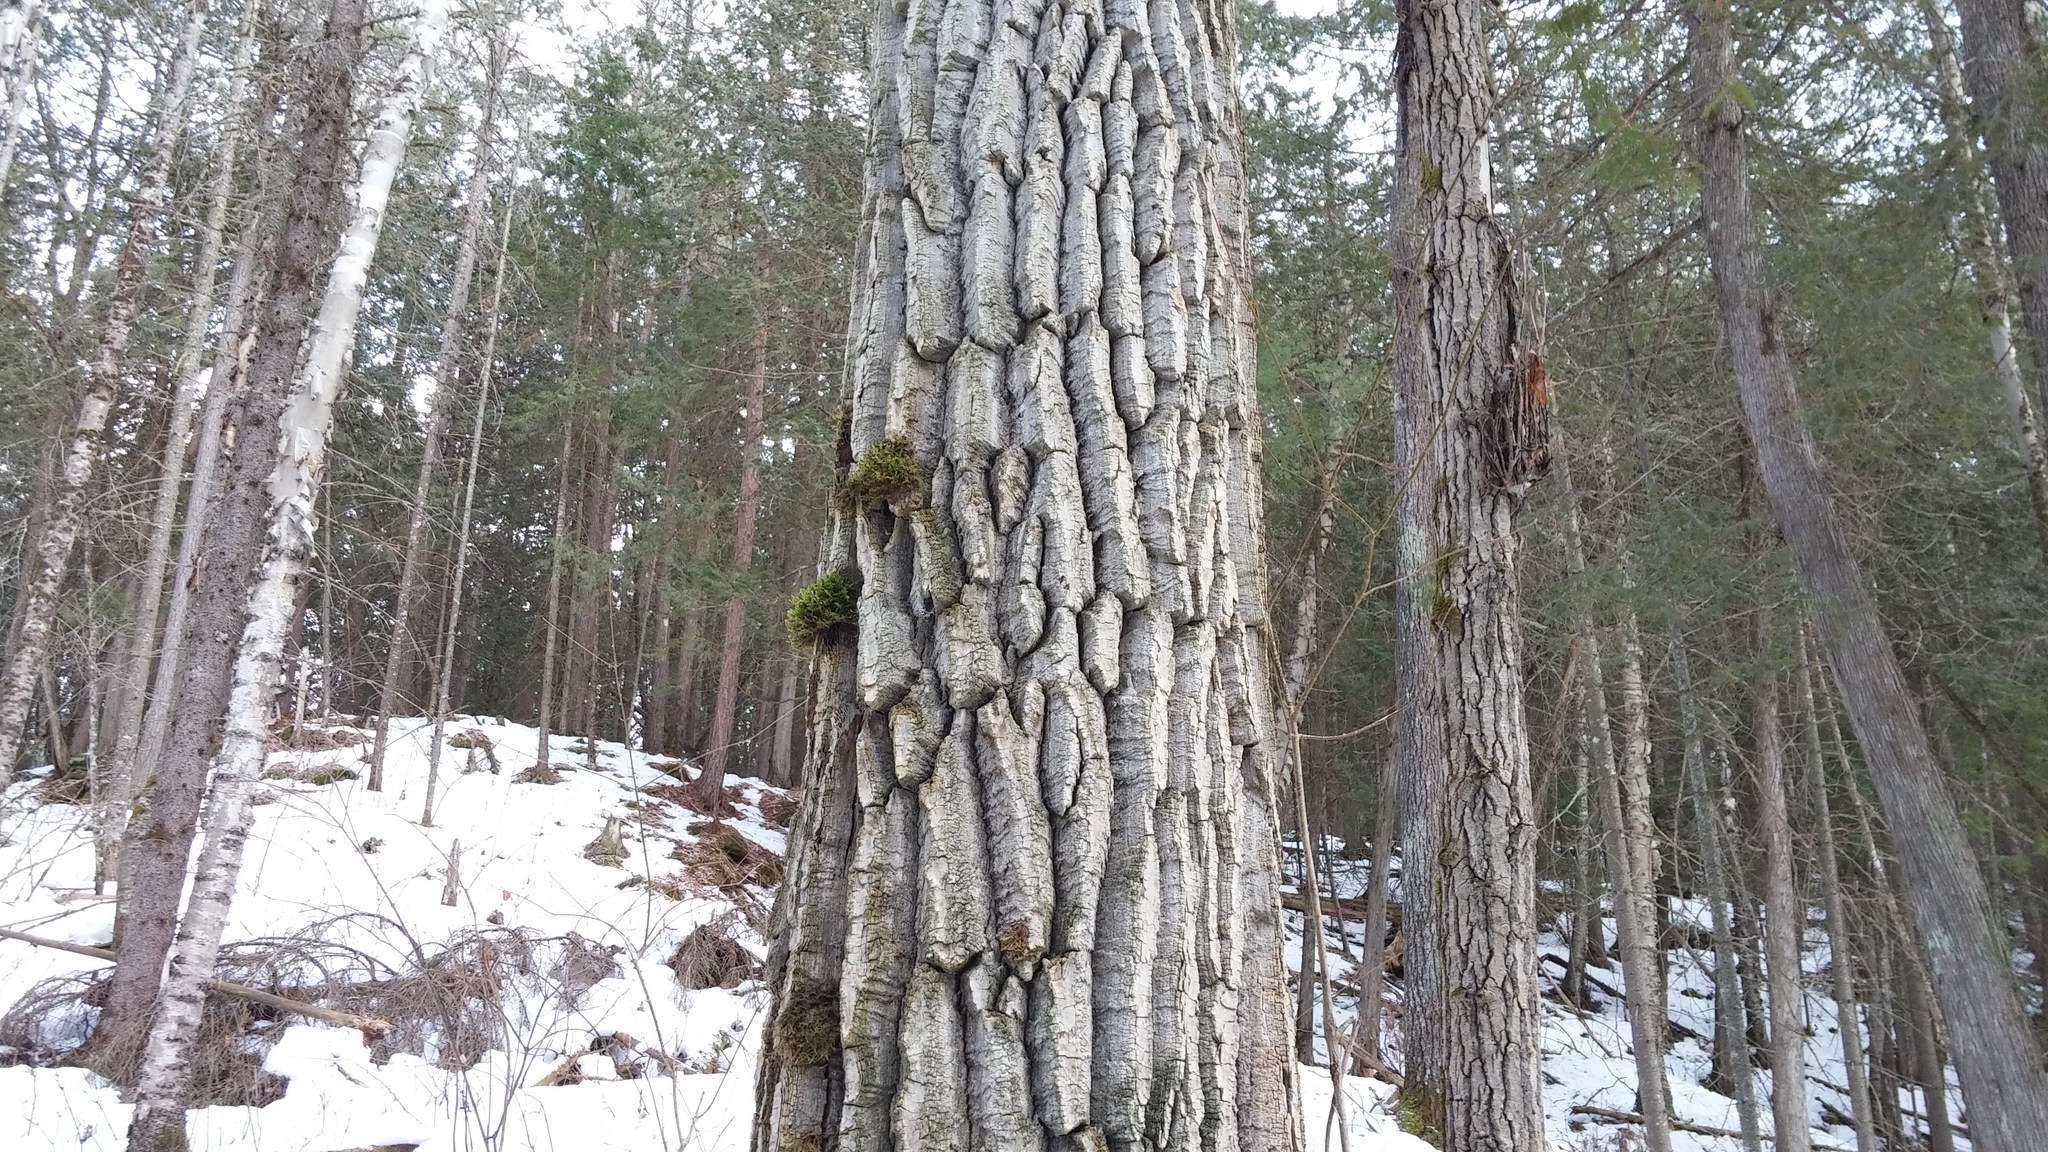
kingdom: Plantae
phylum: Tracheophyta
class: Magnoliopsida
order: Malpighiales
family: Salicaceae
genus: Populus
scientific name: Populus grandidentata
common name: Bigtooth aspen
